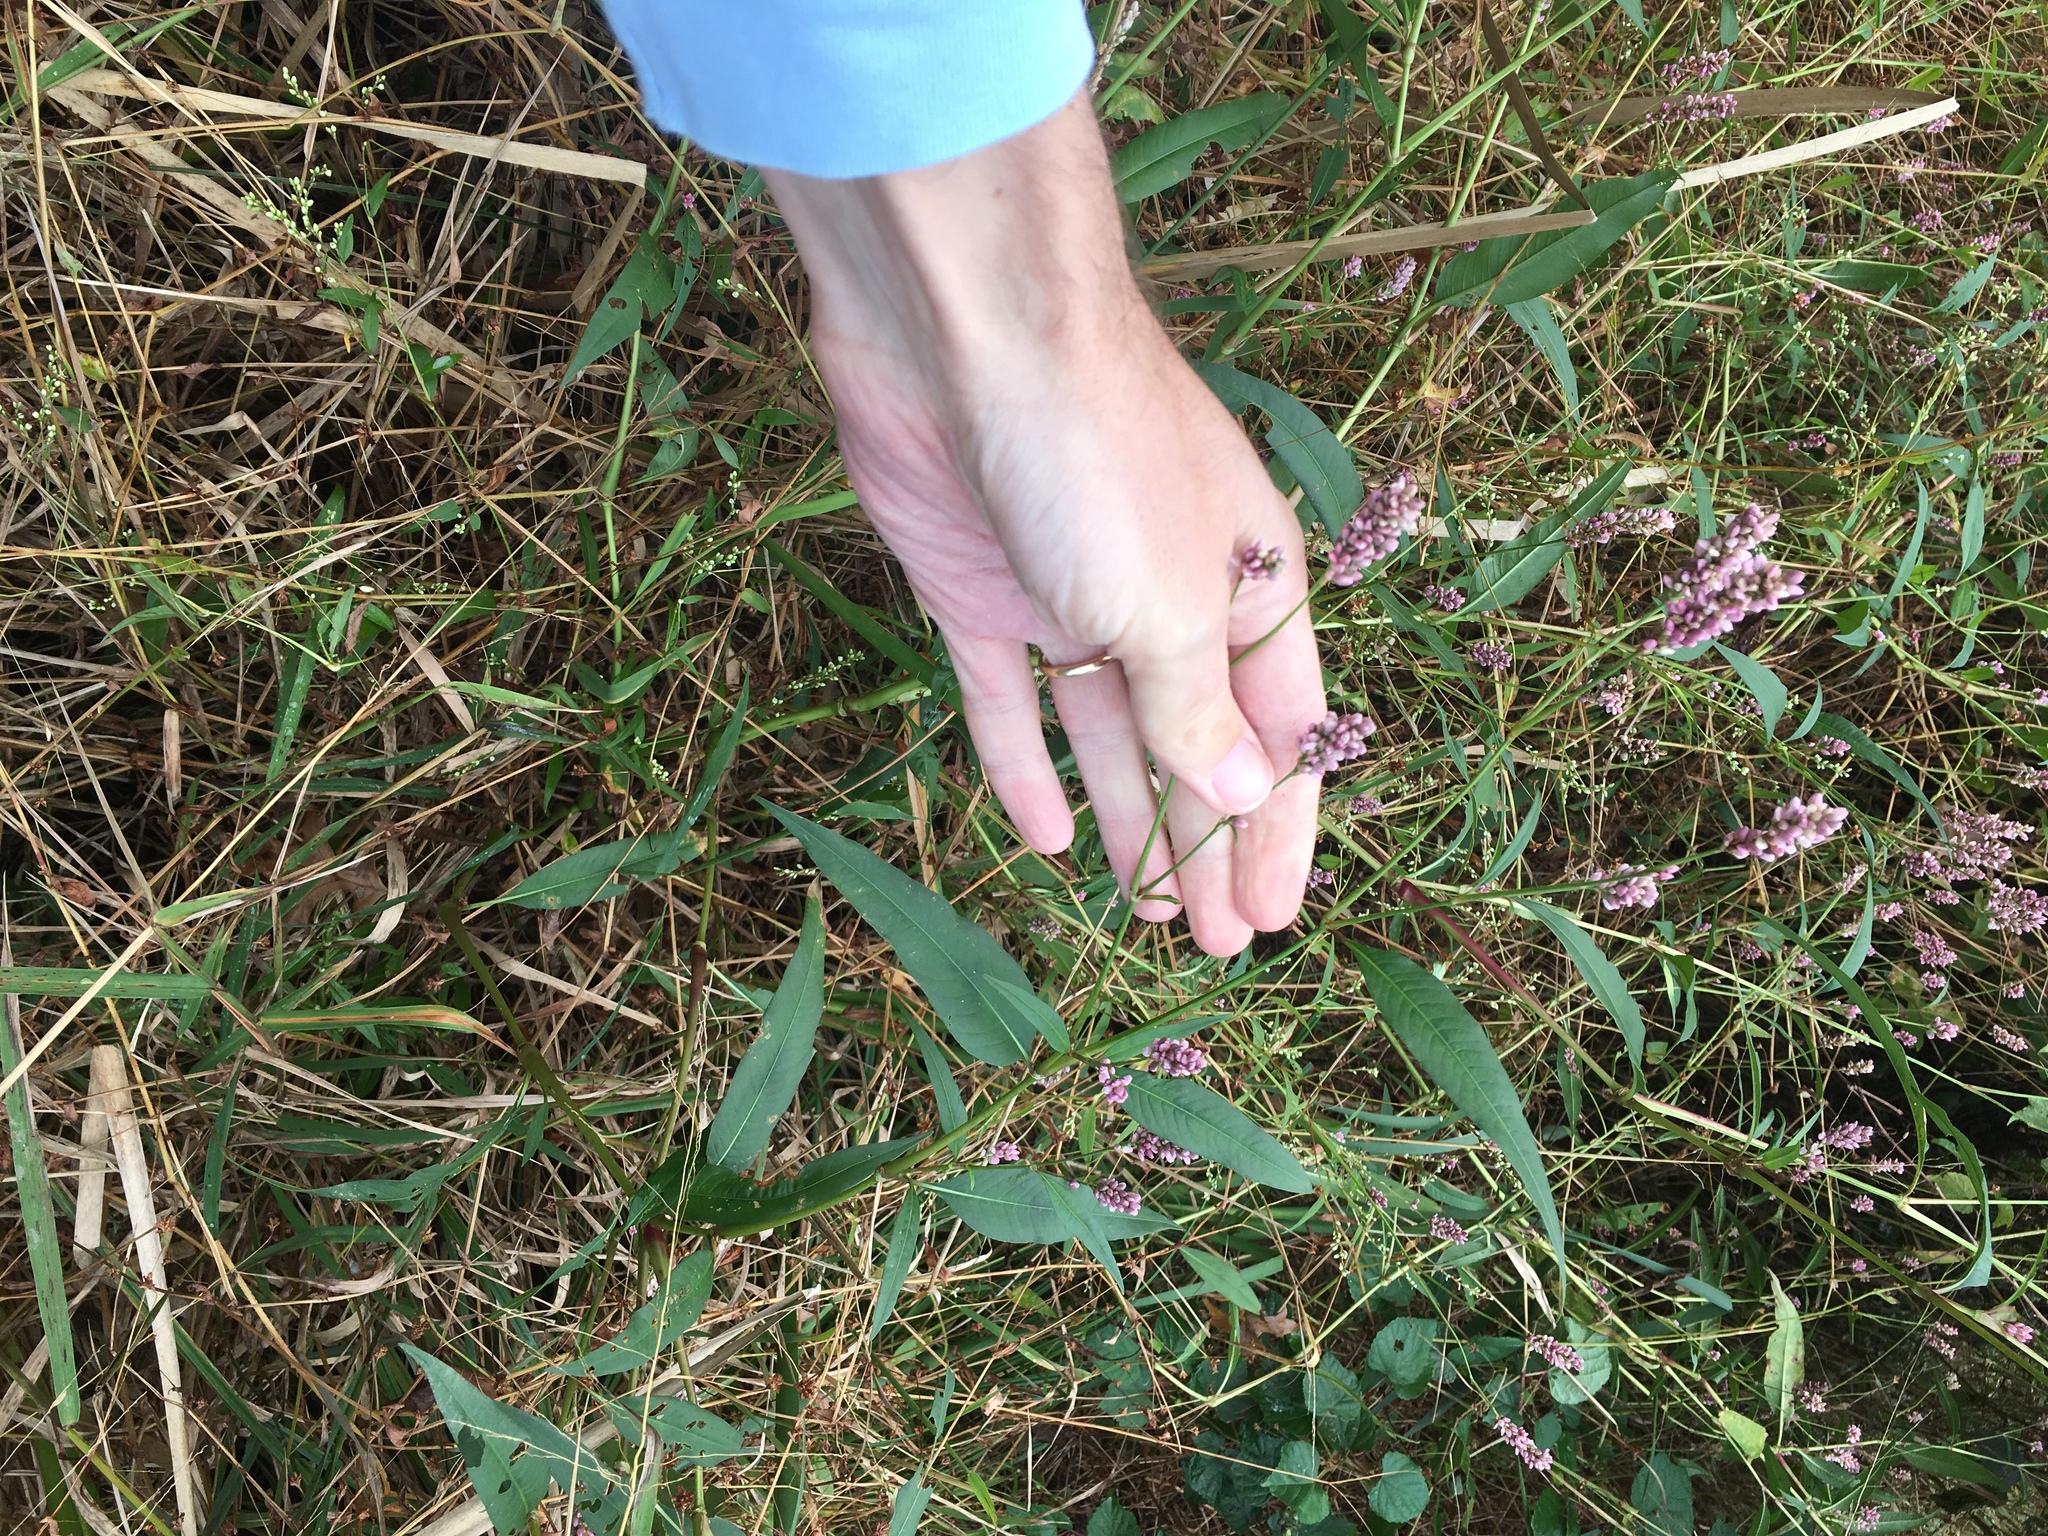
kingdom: Plantae
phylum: Tracheophyta
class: Magnoliopsida
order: Caryophyllales
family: Polygonaceae
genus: Persicaria
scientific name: Persicaria pensylvanica
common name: Pinkweed
